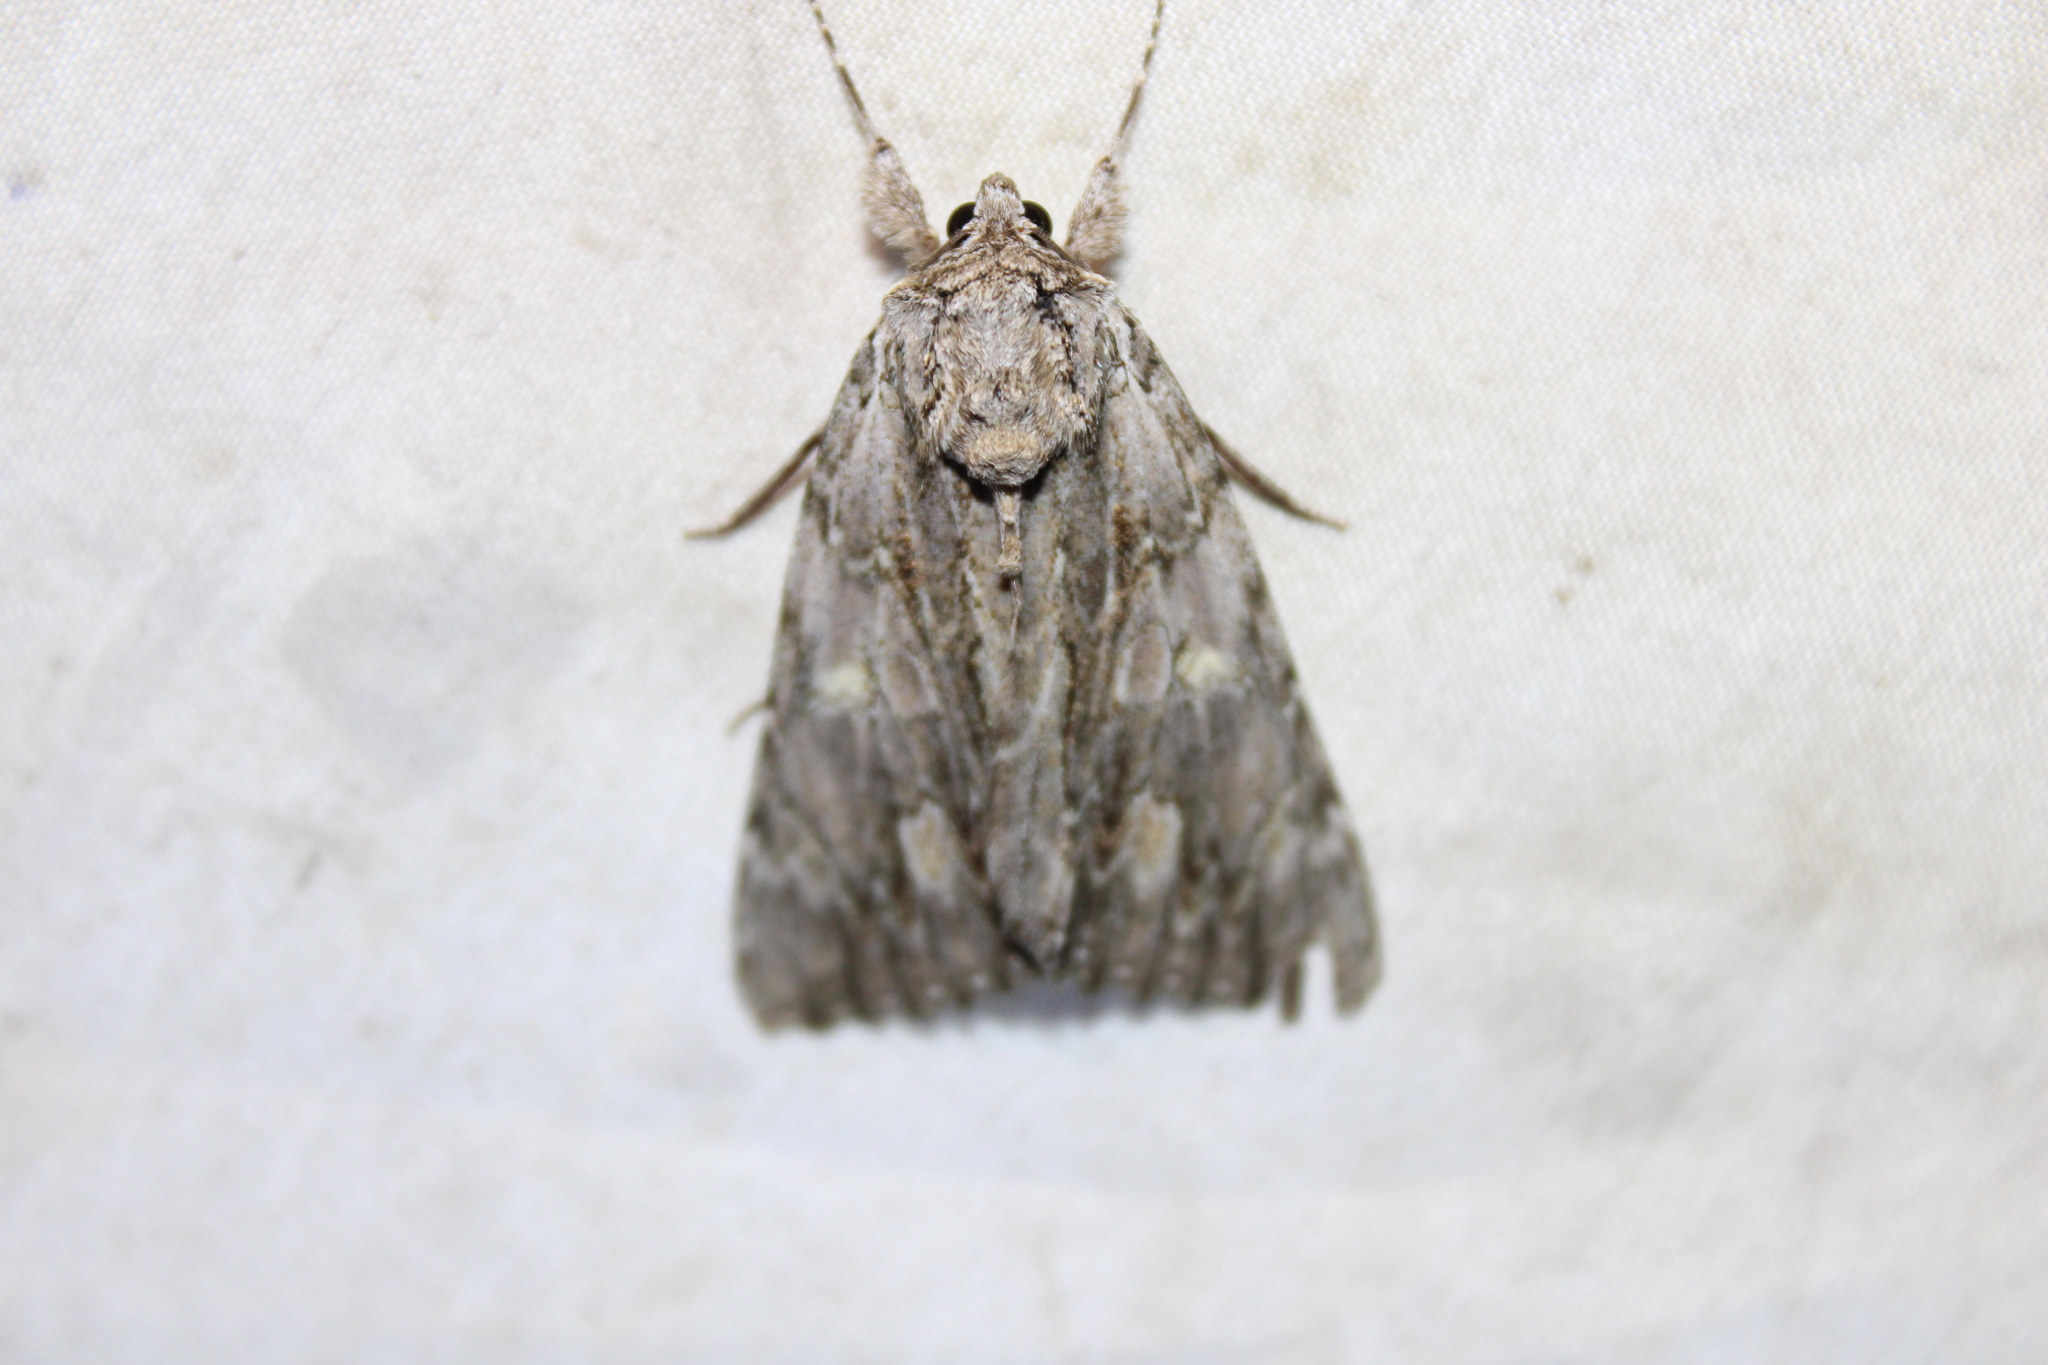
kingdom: Animalia
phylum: Arthropoda
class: Insecta
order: Lepidoptera
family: Erebidae
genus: Catocala
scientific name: Catocala coccinata
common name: Scarlet underwing
